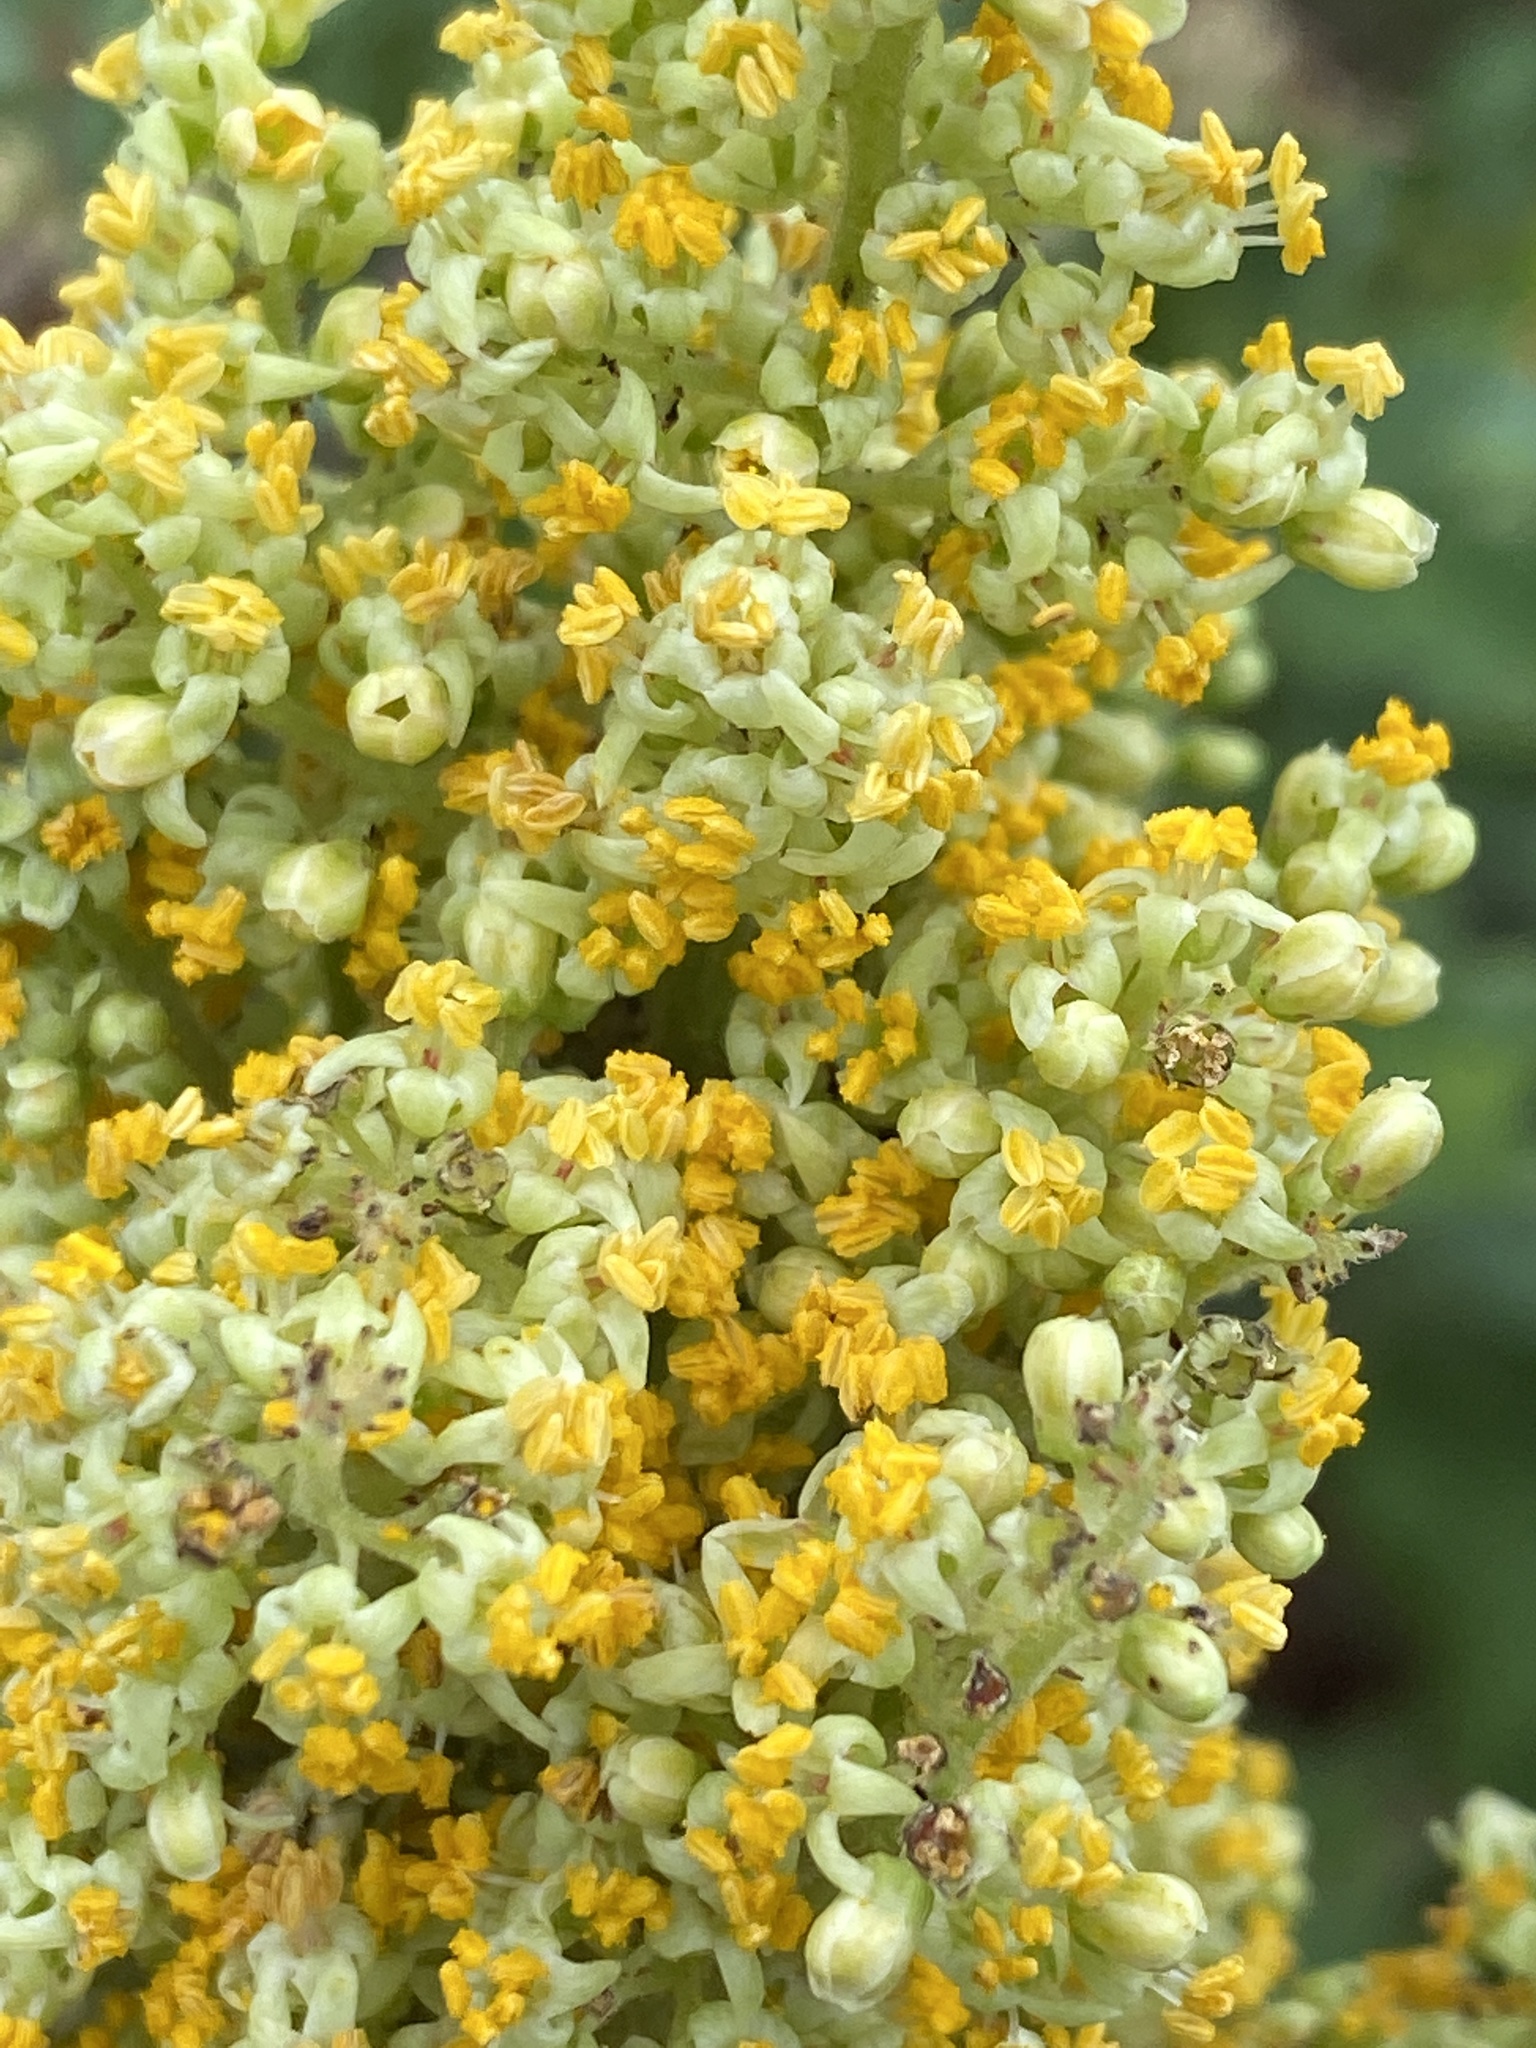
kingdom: Plantae
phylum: Tracheophyta
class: Magnoliopsida
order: Sapindales
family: Anacardiaceae
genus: Rhus
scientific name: Rhus copallina
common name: Shining sumac
